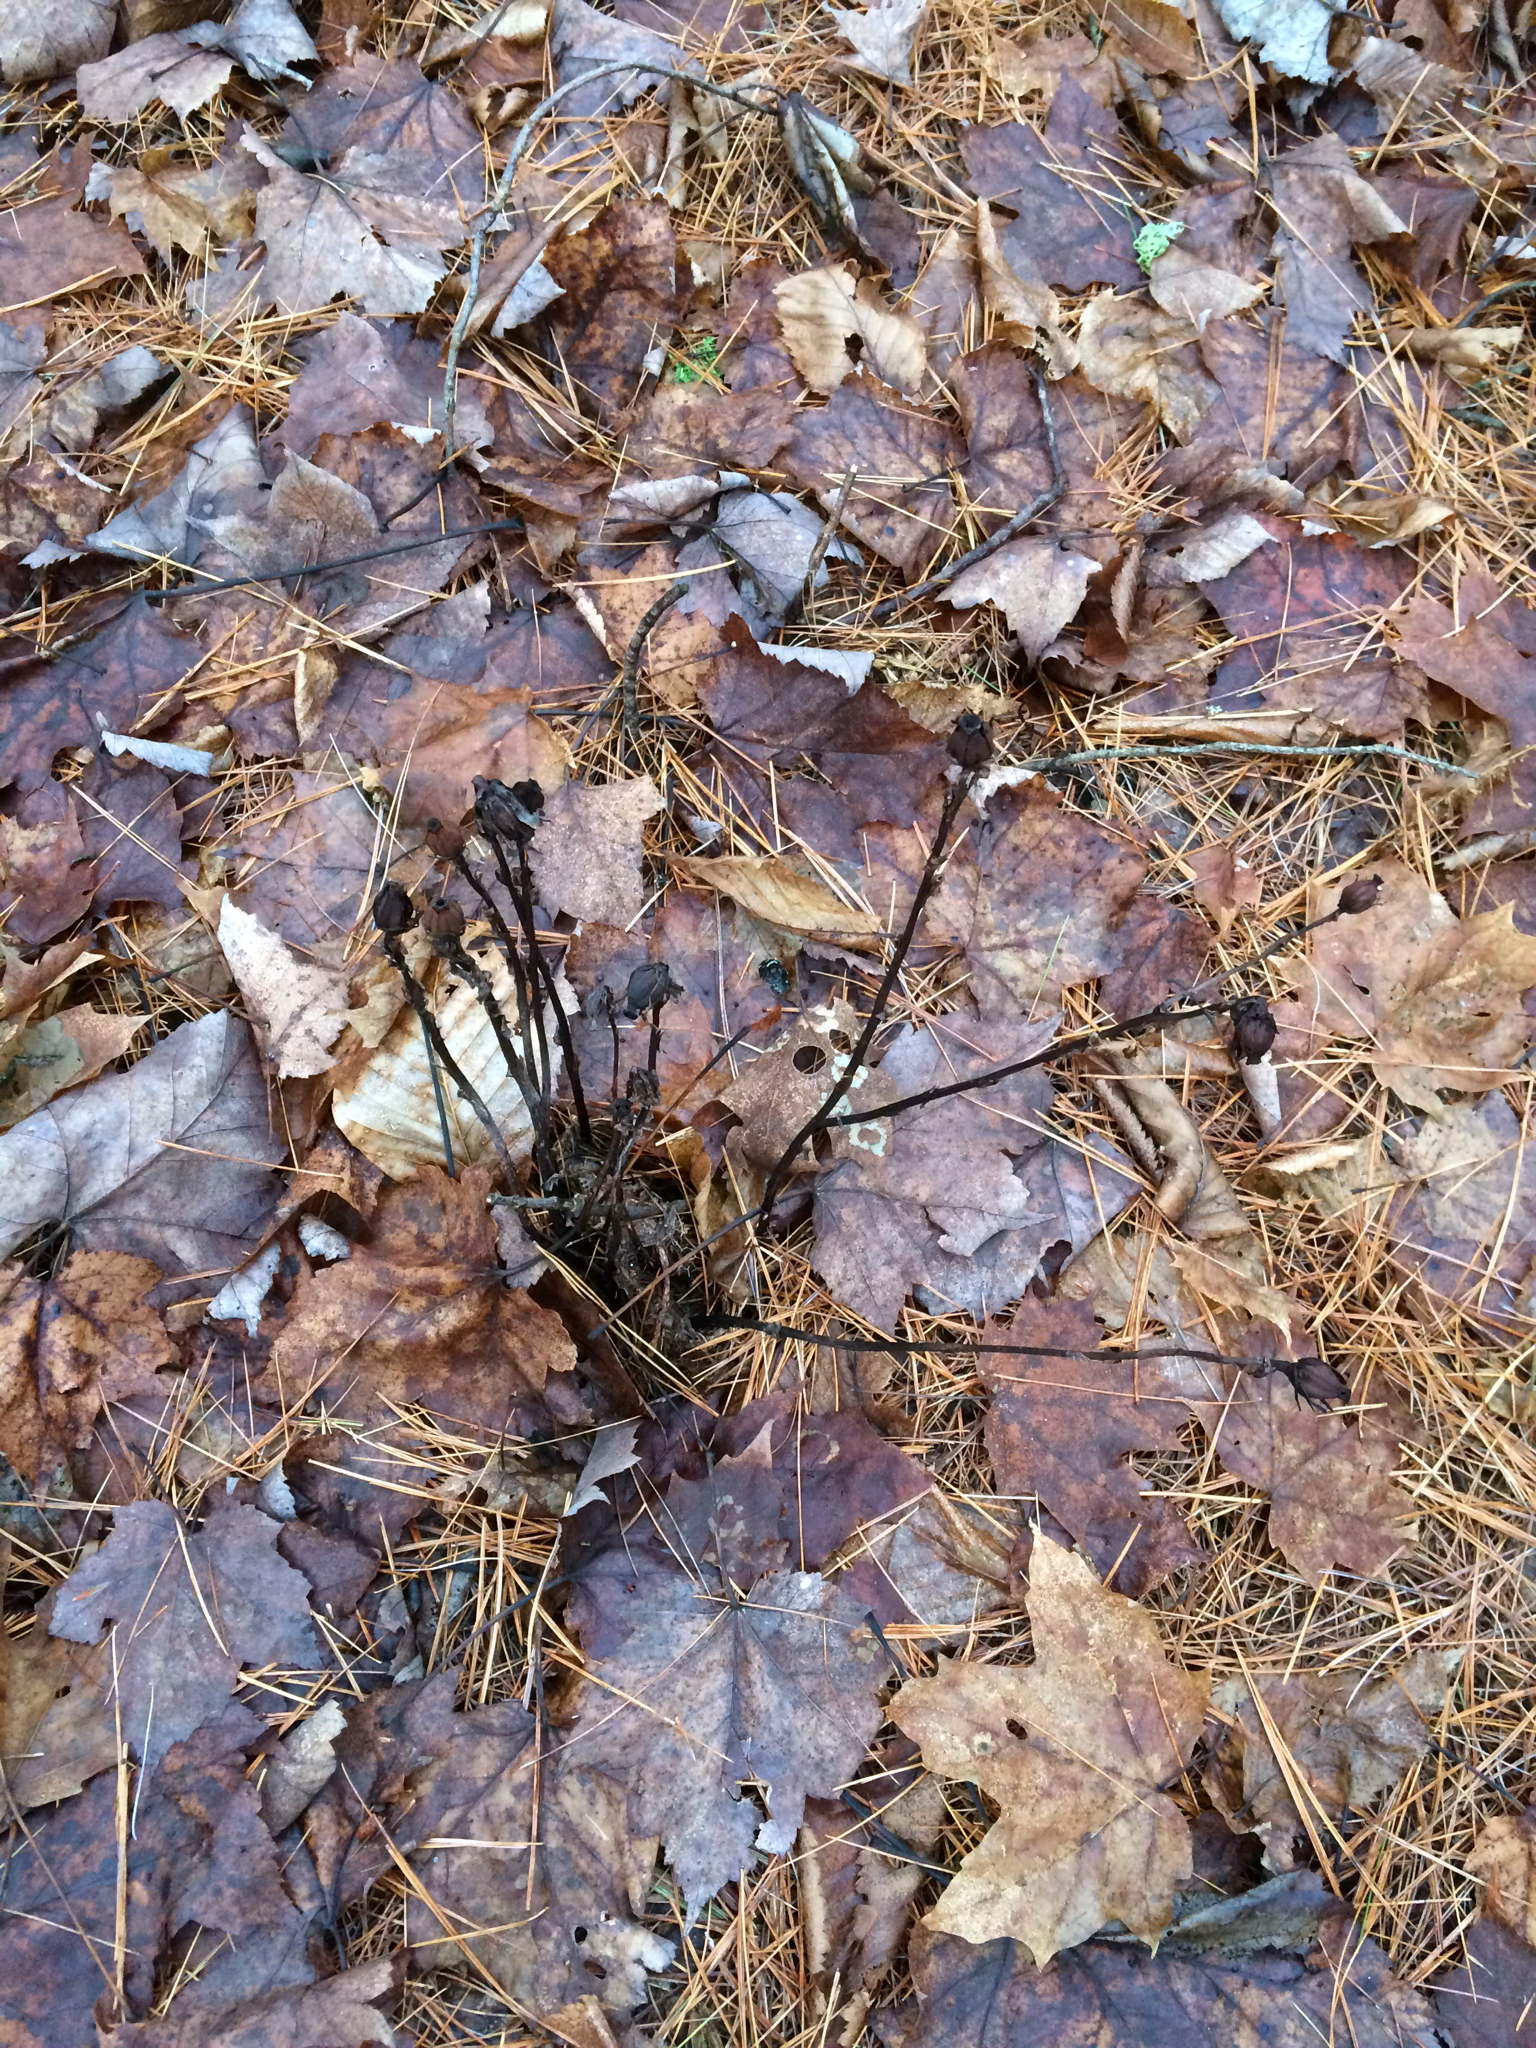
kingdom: Plantae
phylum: Tracheophyta
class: Magnoliopsida
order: Ericales
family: Ericaceae
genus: Monotropa
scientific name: Monotropa uniflora
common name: Convulsion root
